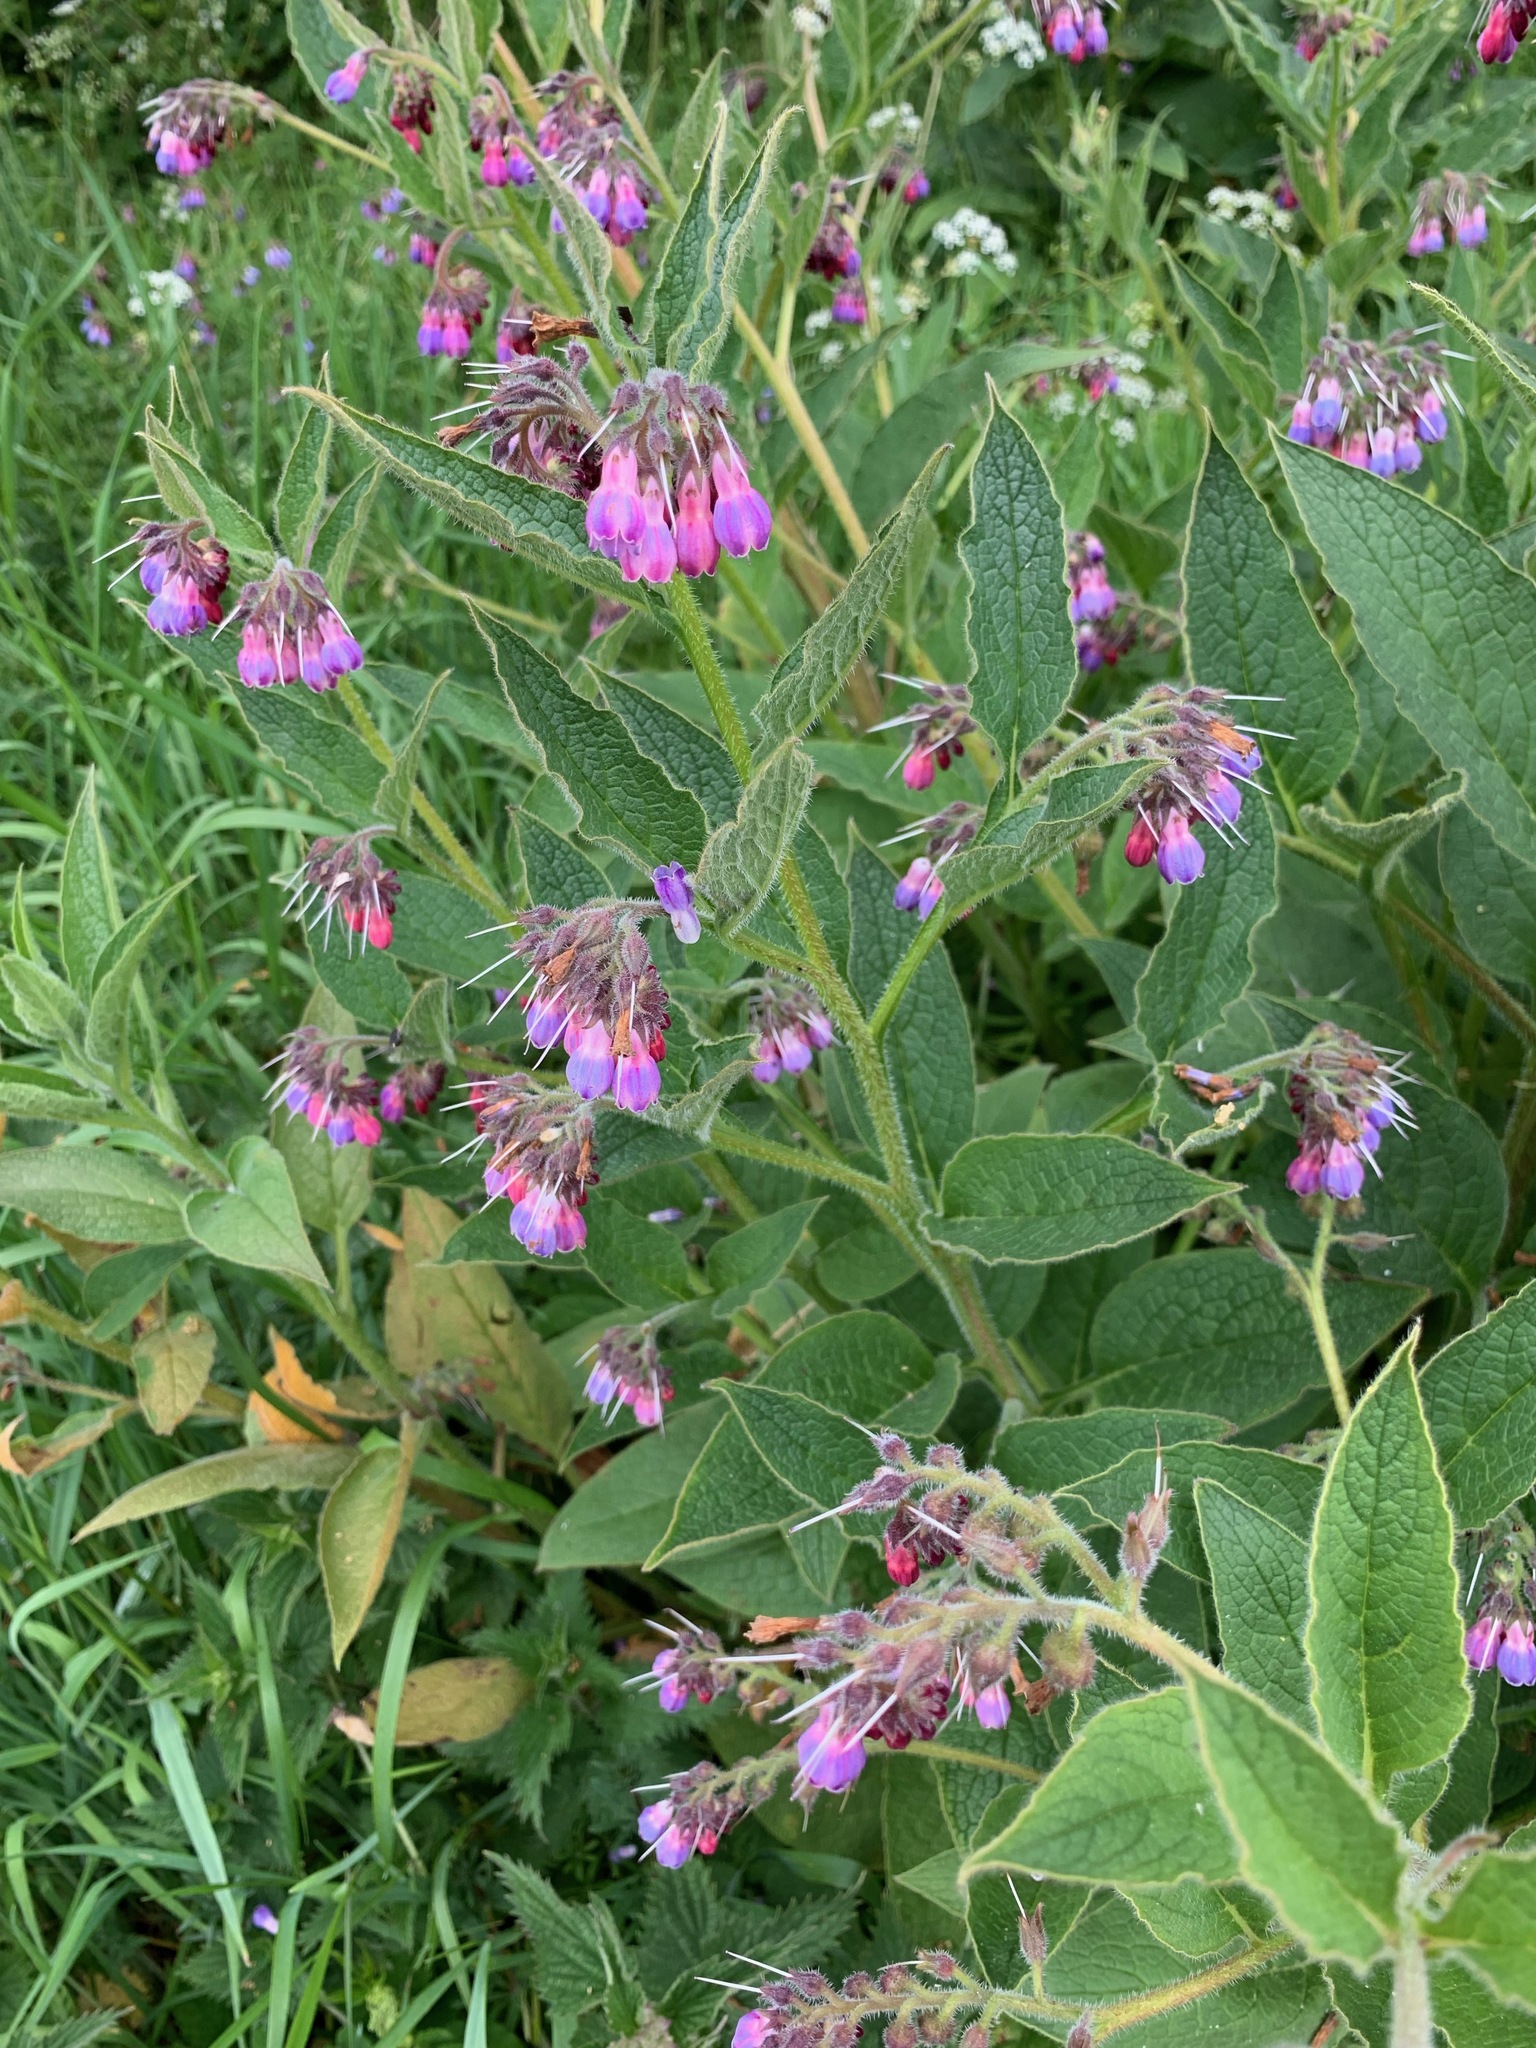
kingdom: Plantae
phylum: Tracheophyta
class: Magnoliopsida
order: Boraginales
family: Boraginaceae
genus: Symphytum
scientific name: Symphytum uplandicum
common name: Russian comfrey
